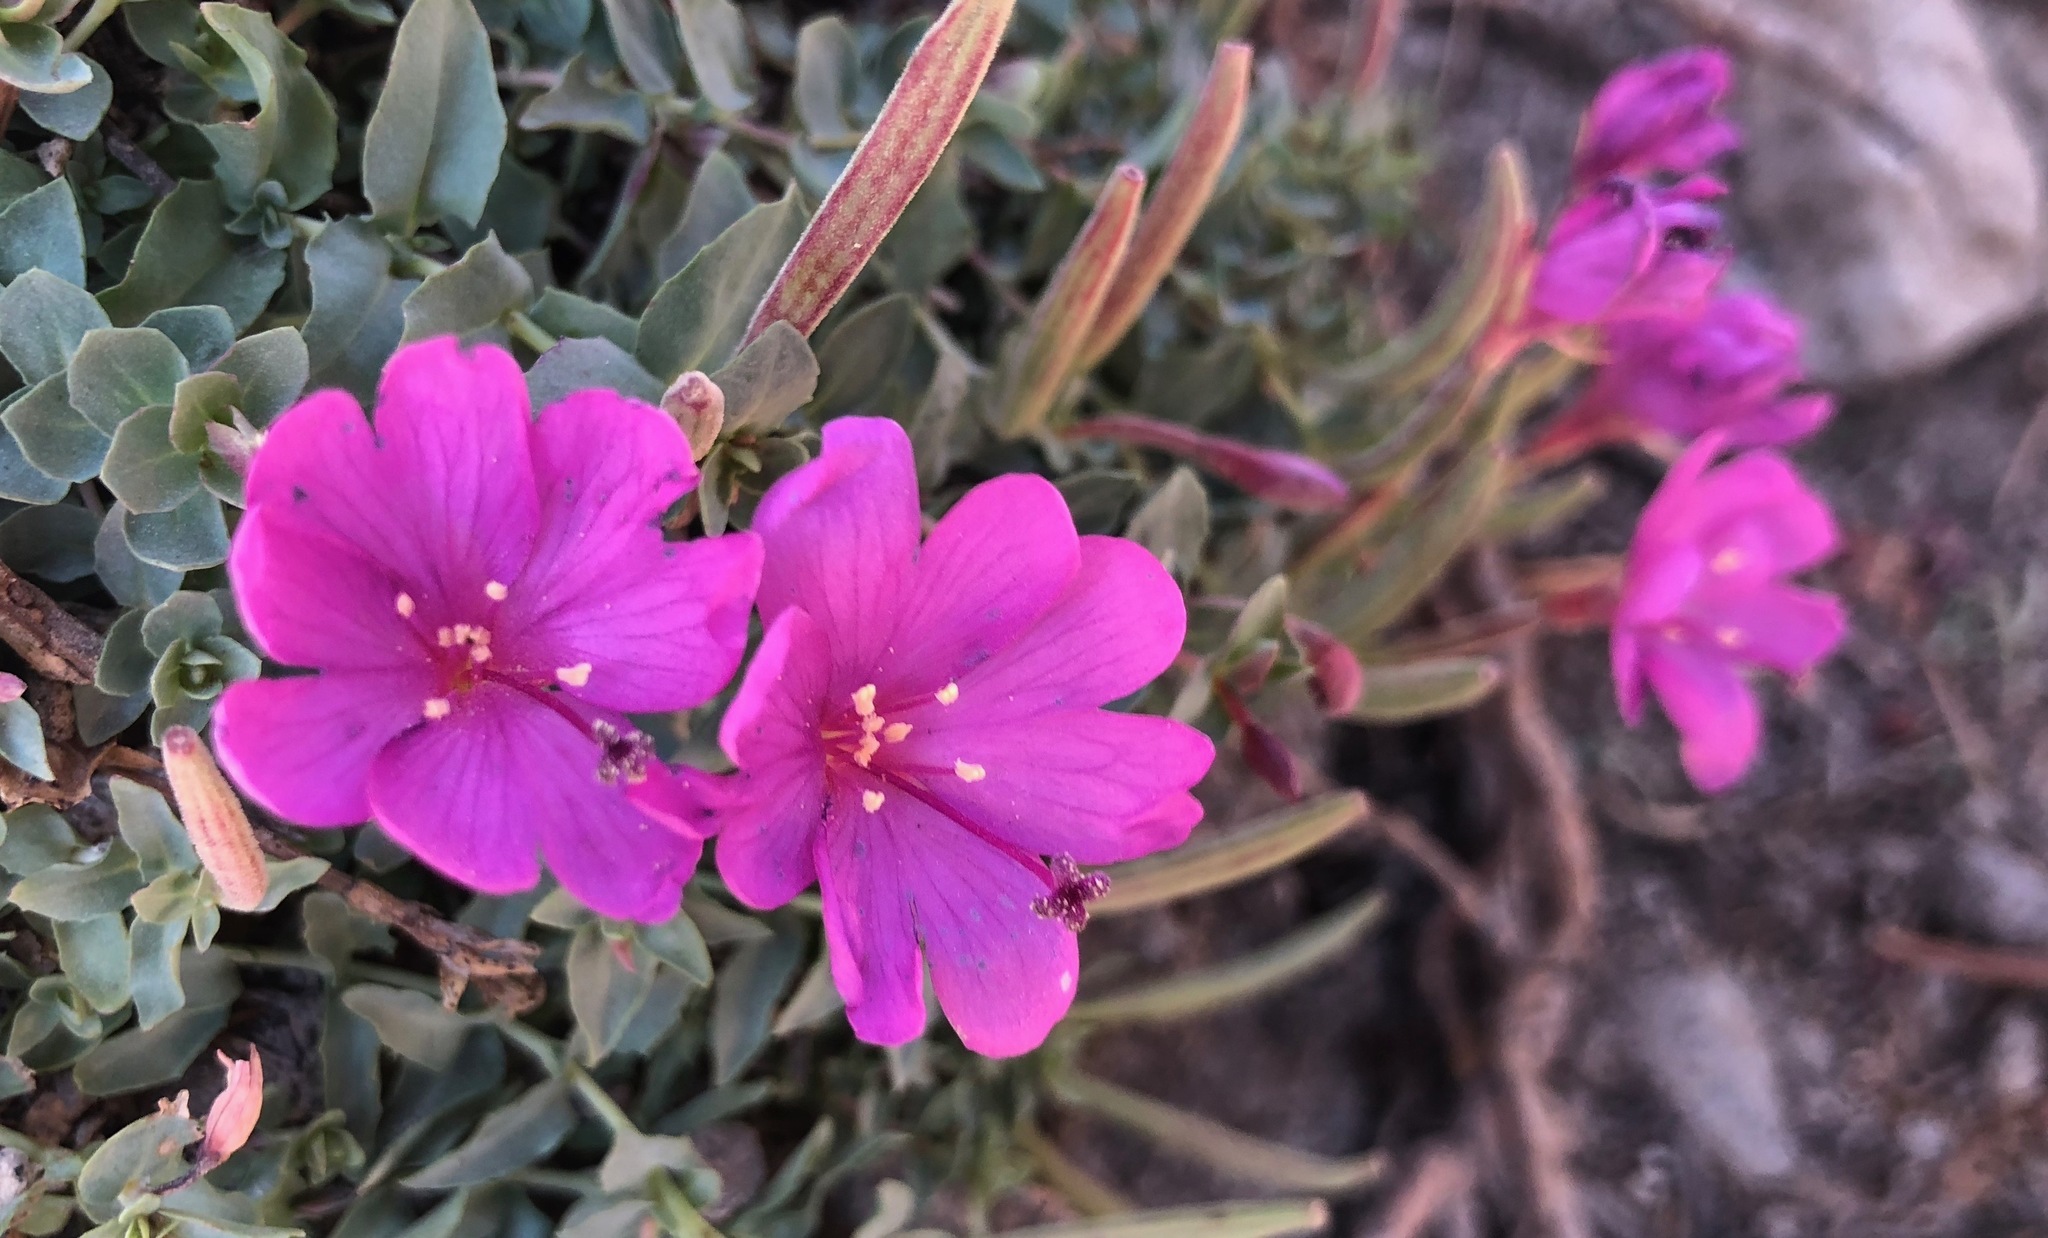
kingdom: Plantae
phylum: Tracheophyta
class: Magnoliopsida
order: Myrtales
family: Onagraceae
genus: Epilobium
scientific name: Epilobium obcordatum
